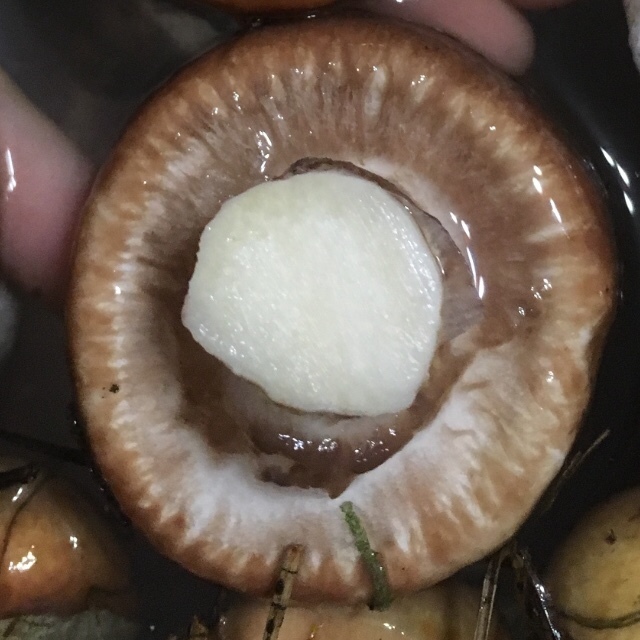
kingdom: Fungi
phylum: Basidiomycota
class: Agaricomycetes
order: Boletales
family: Suillaceae
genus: Suillus
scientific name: Suillus luteus
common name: Slippery jack
